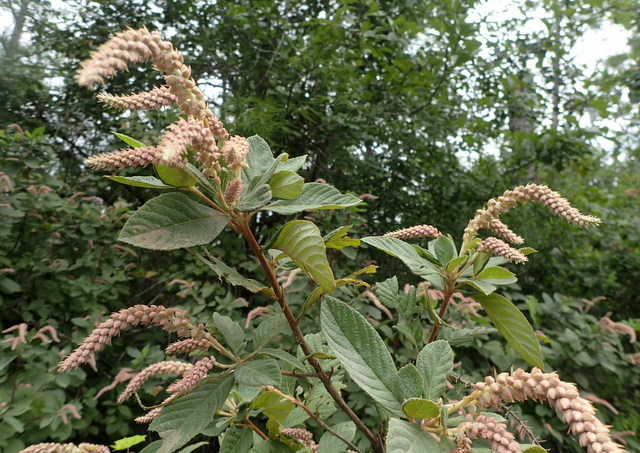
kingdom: Plantae
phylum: Tracheophyta
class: Magnoliopsida
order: Ericales
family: Clethraceae
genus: Clethra
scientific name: Clethra tomentosa
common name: Downy sweet pepperbush
